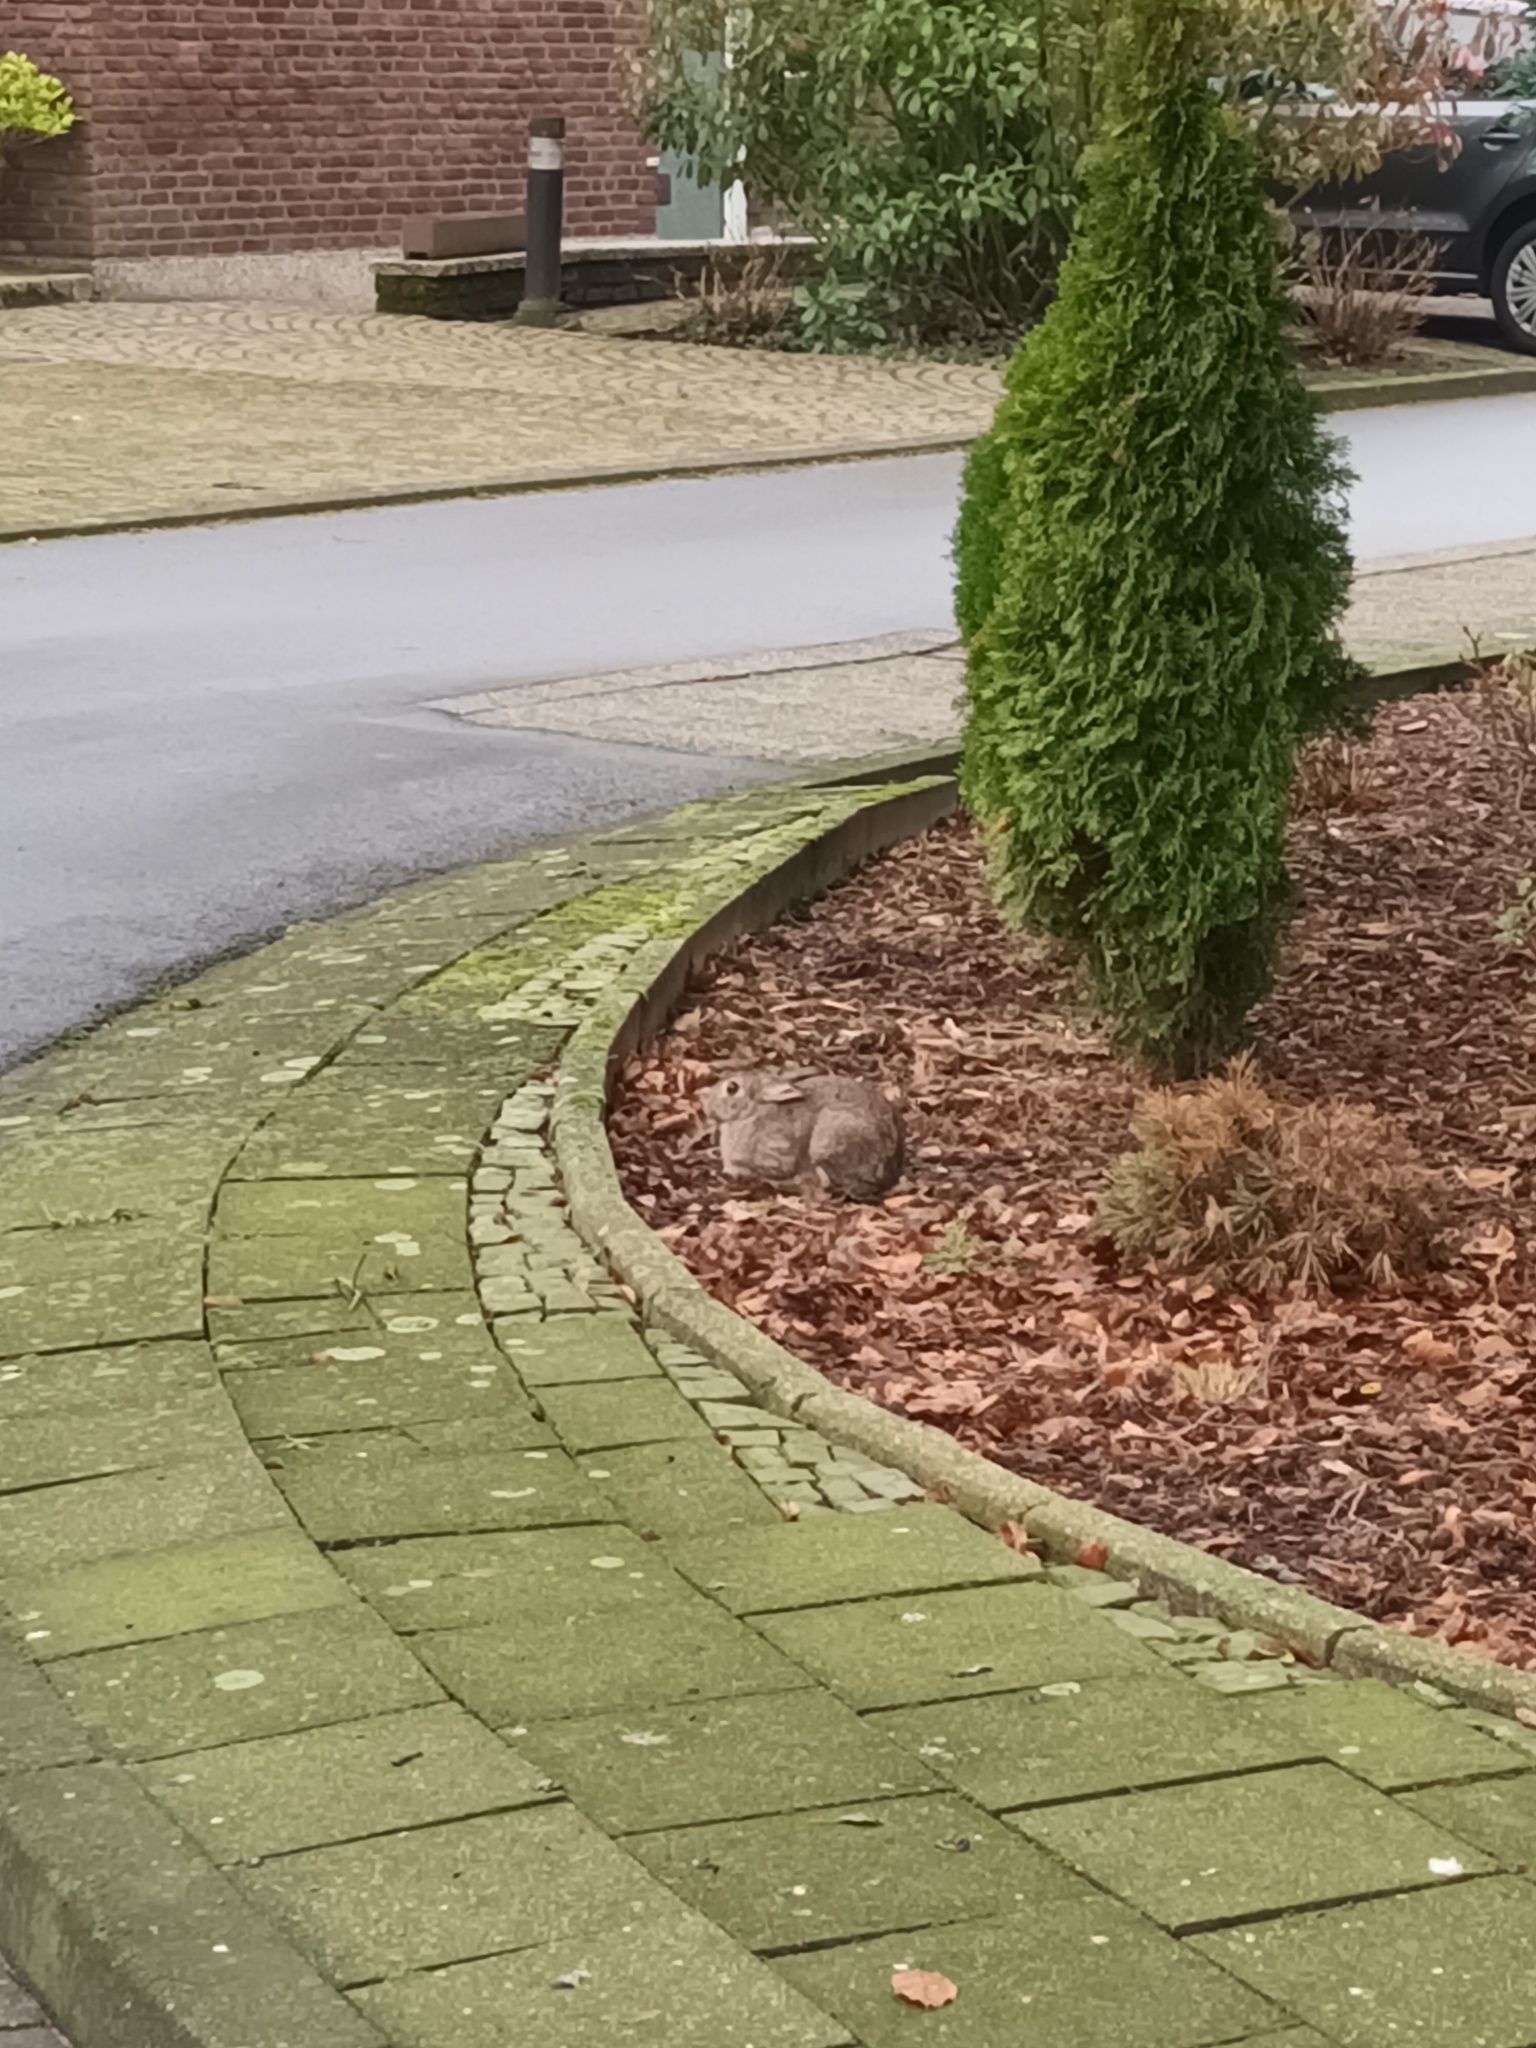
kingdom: Animalia
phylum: Chordata
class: Mammalia
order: Lagomorpha
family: Leporidae
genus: Oryctolagus
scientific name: Oryctolagus cuniculus
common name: European rabbit
